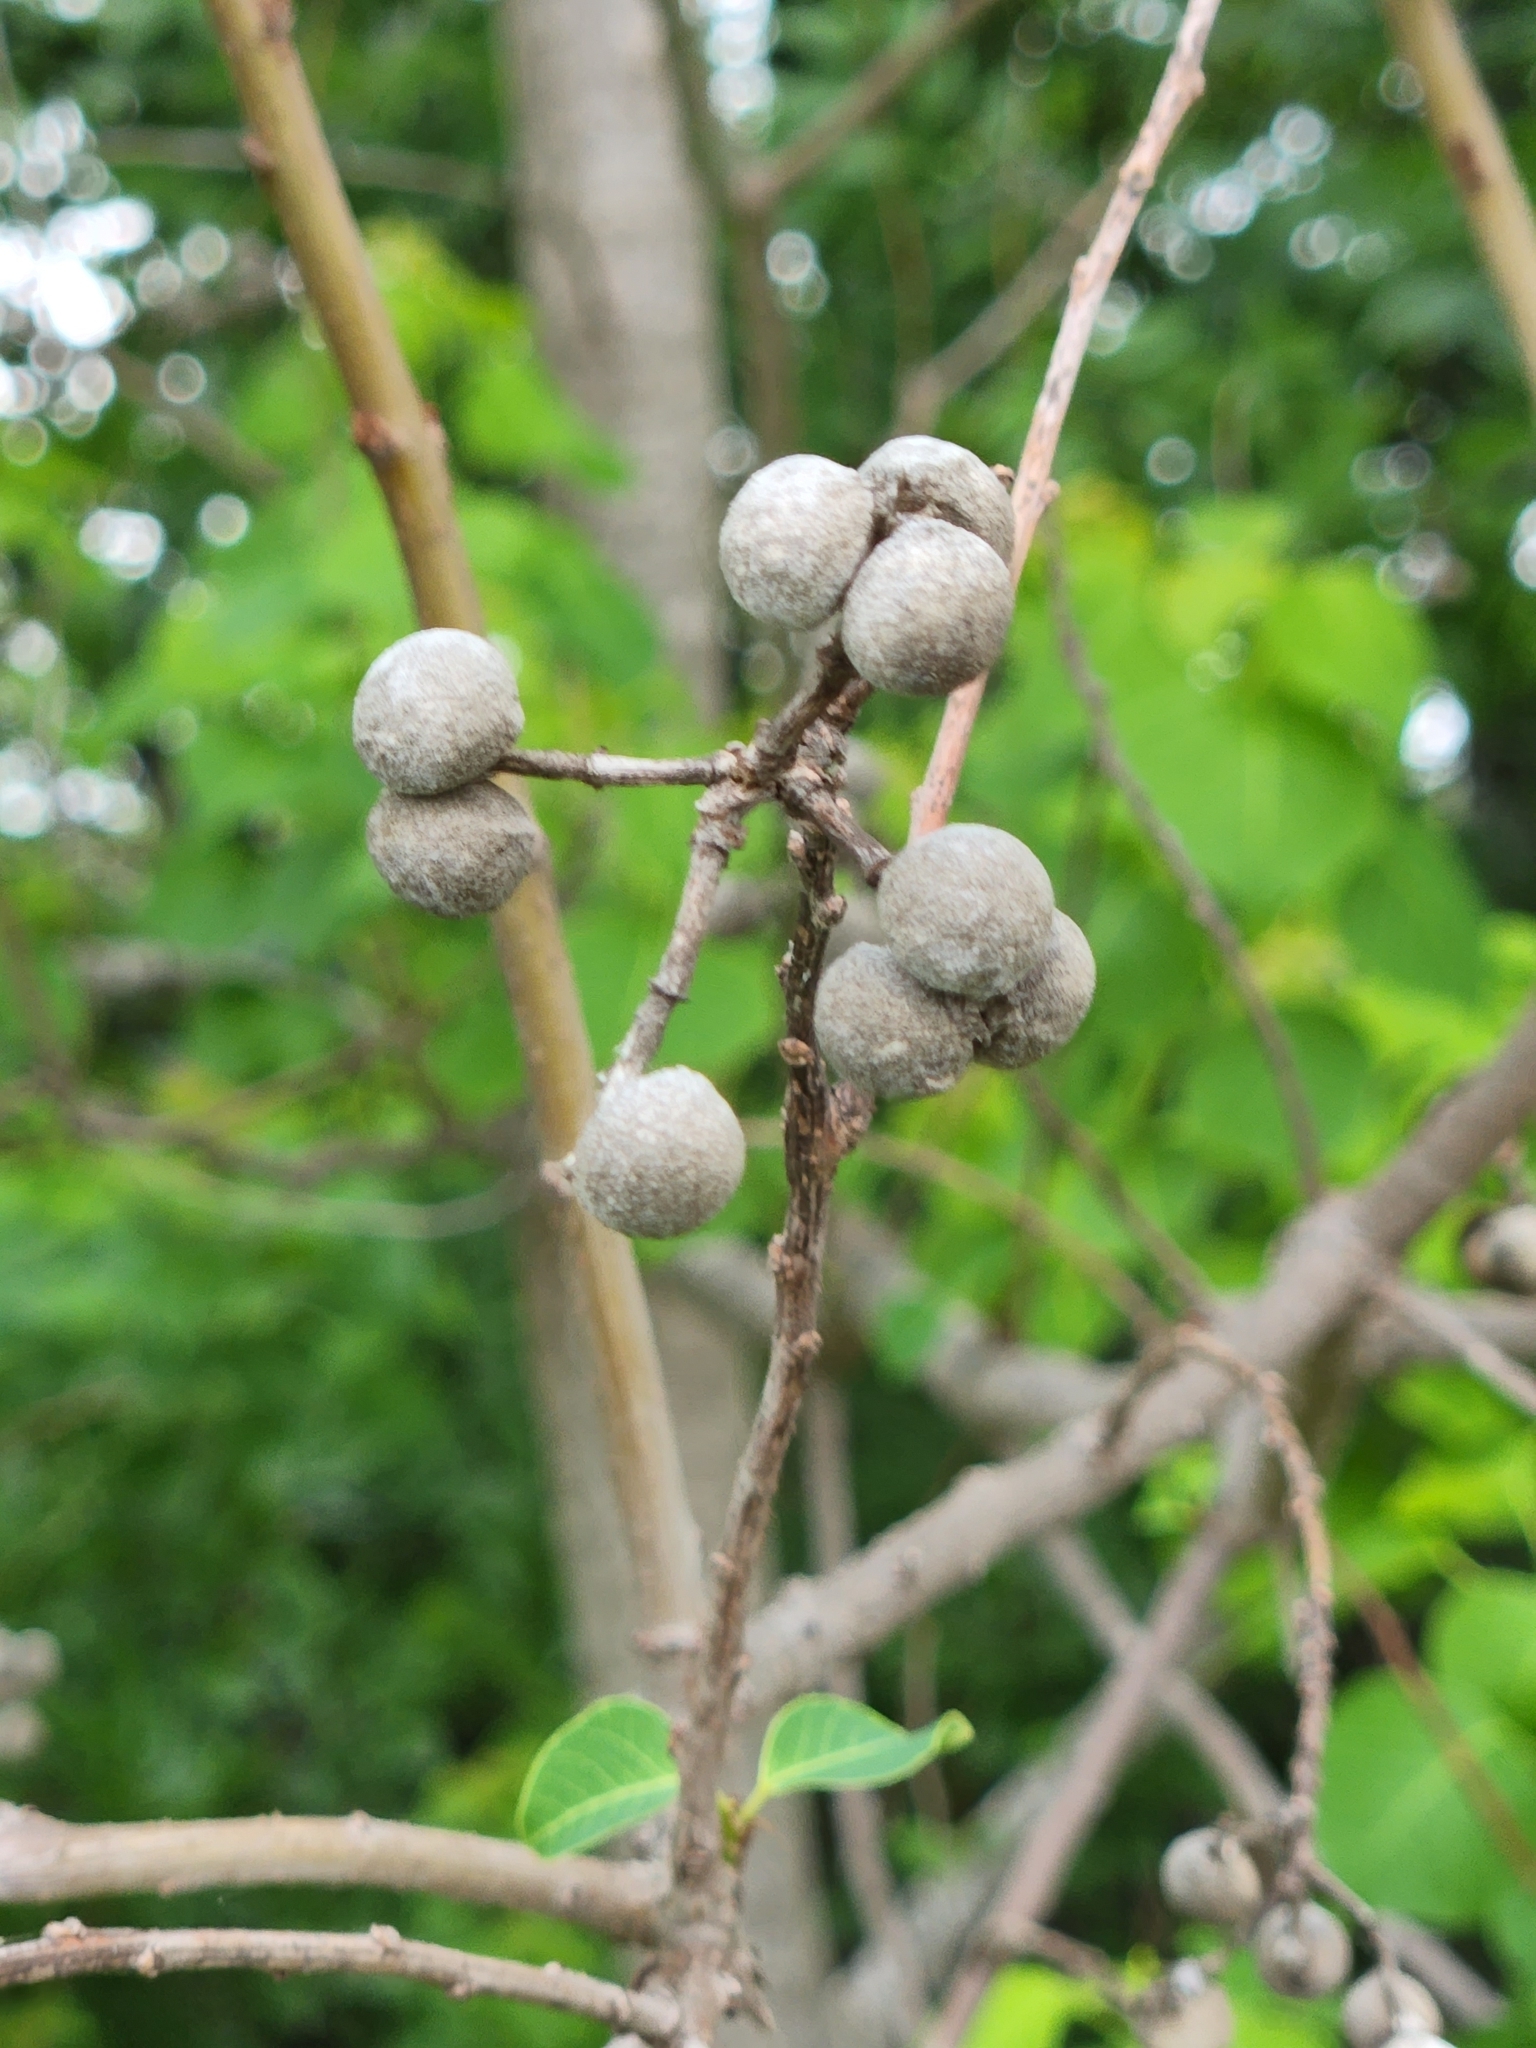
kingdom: Plantae
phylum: Tracheophyta
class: Magnoliopsida
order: Malpighiales
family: Euphorbiaceae
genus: Triadica
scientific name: Triadica sebifera
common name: Chinese tallow
